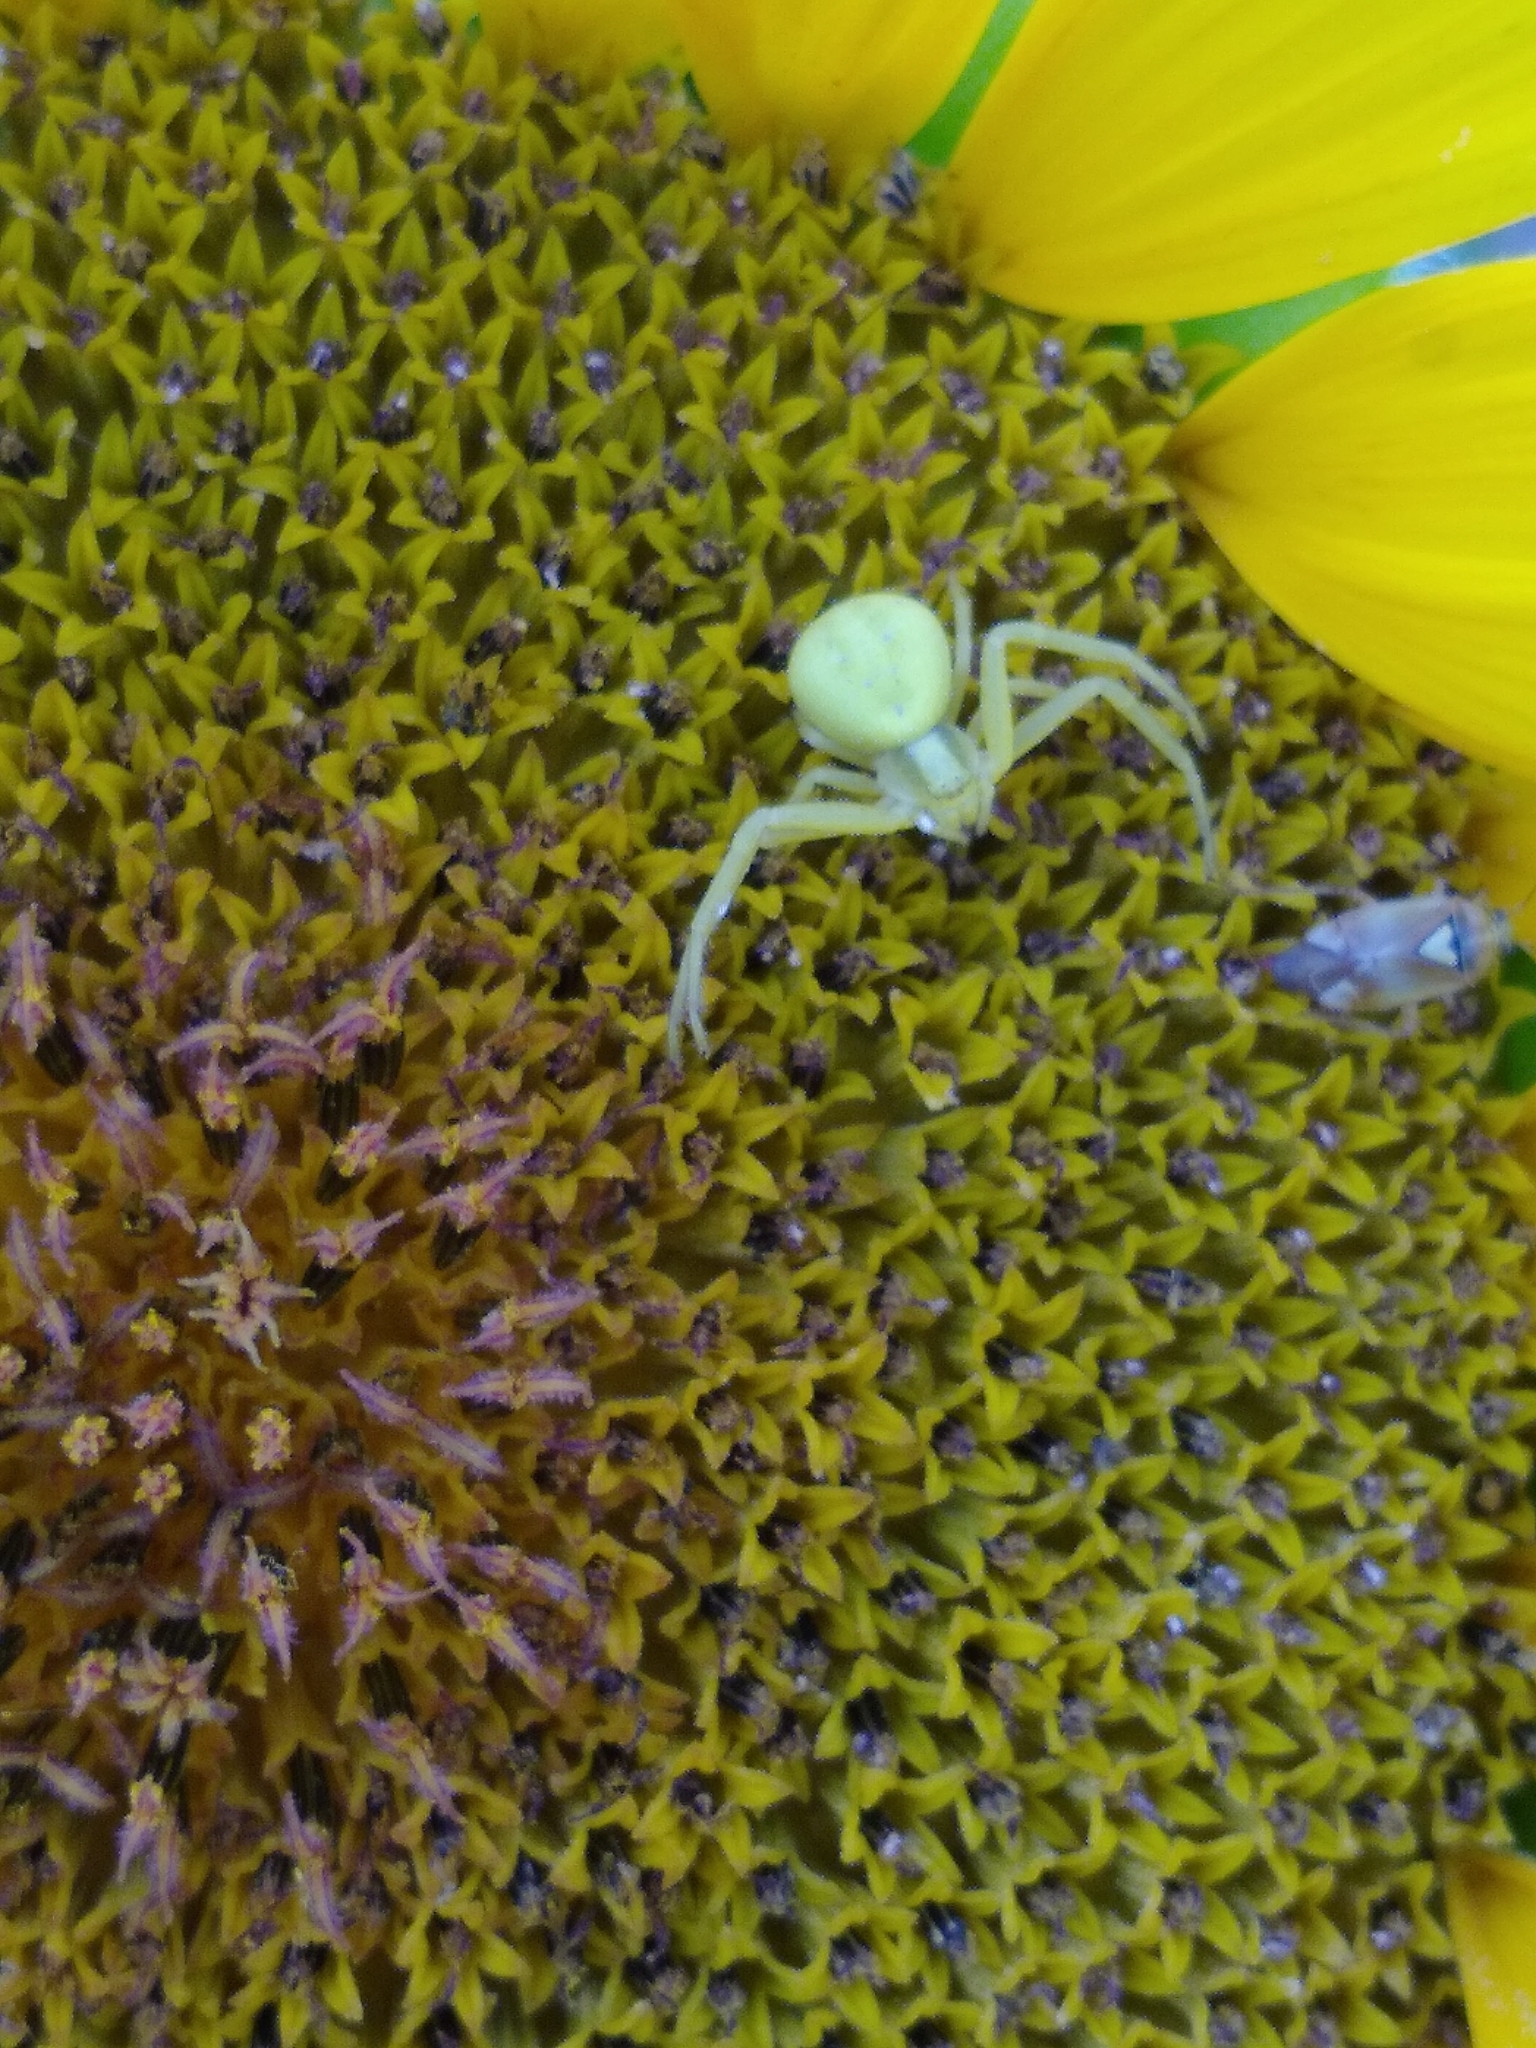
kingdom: Animalia
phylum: Arthropoda
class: Arachnida
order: Araneae
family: Thomisidae
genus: Misumena
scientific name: Misumena vatia
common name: Goldenrod crab spider
